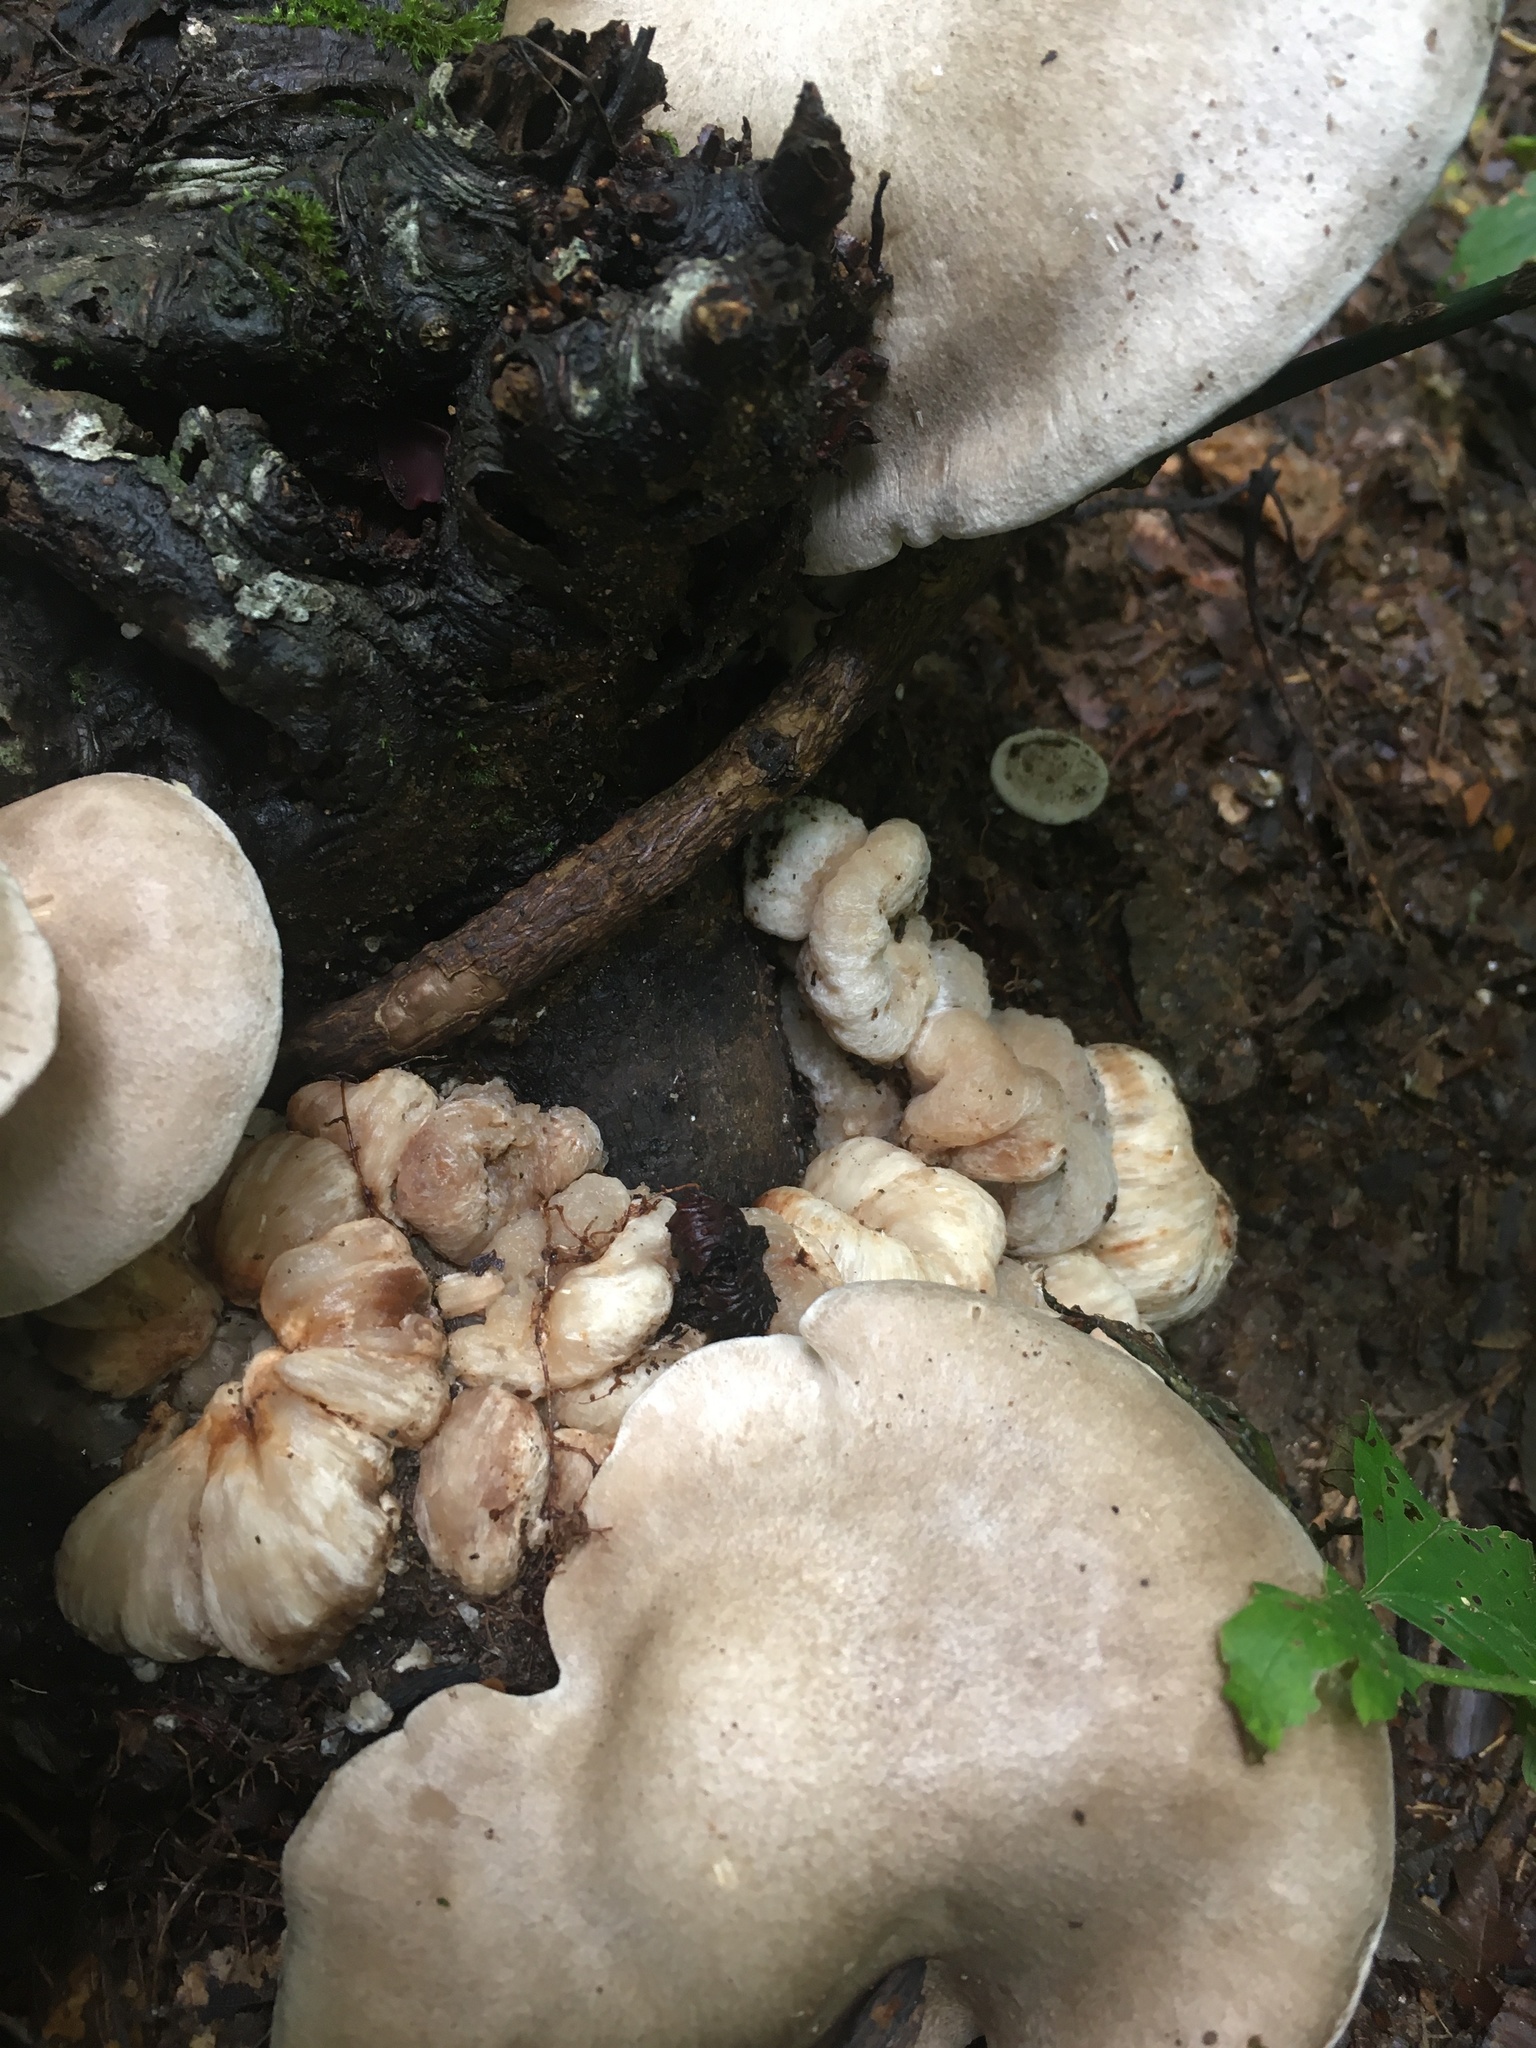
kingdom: Fungi
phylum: Basidiomycota
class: Agaricomycetes
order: Agaricales
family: Entolomataceae
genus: Entoloma
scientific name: Entoloma abortivum
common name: Aborted entoloma
